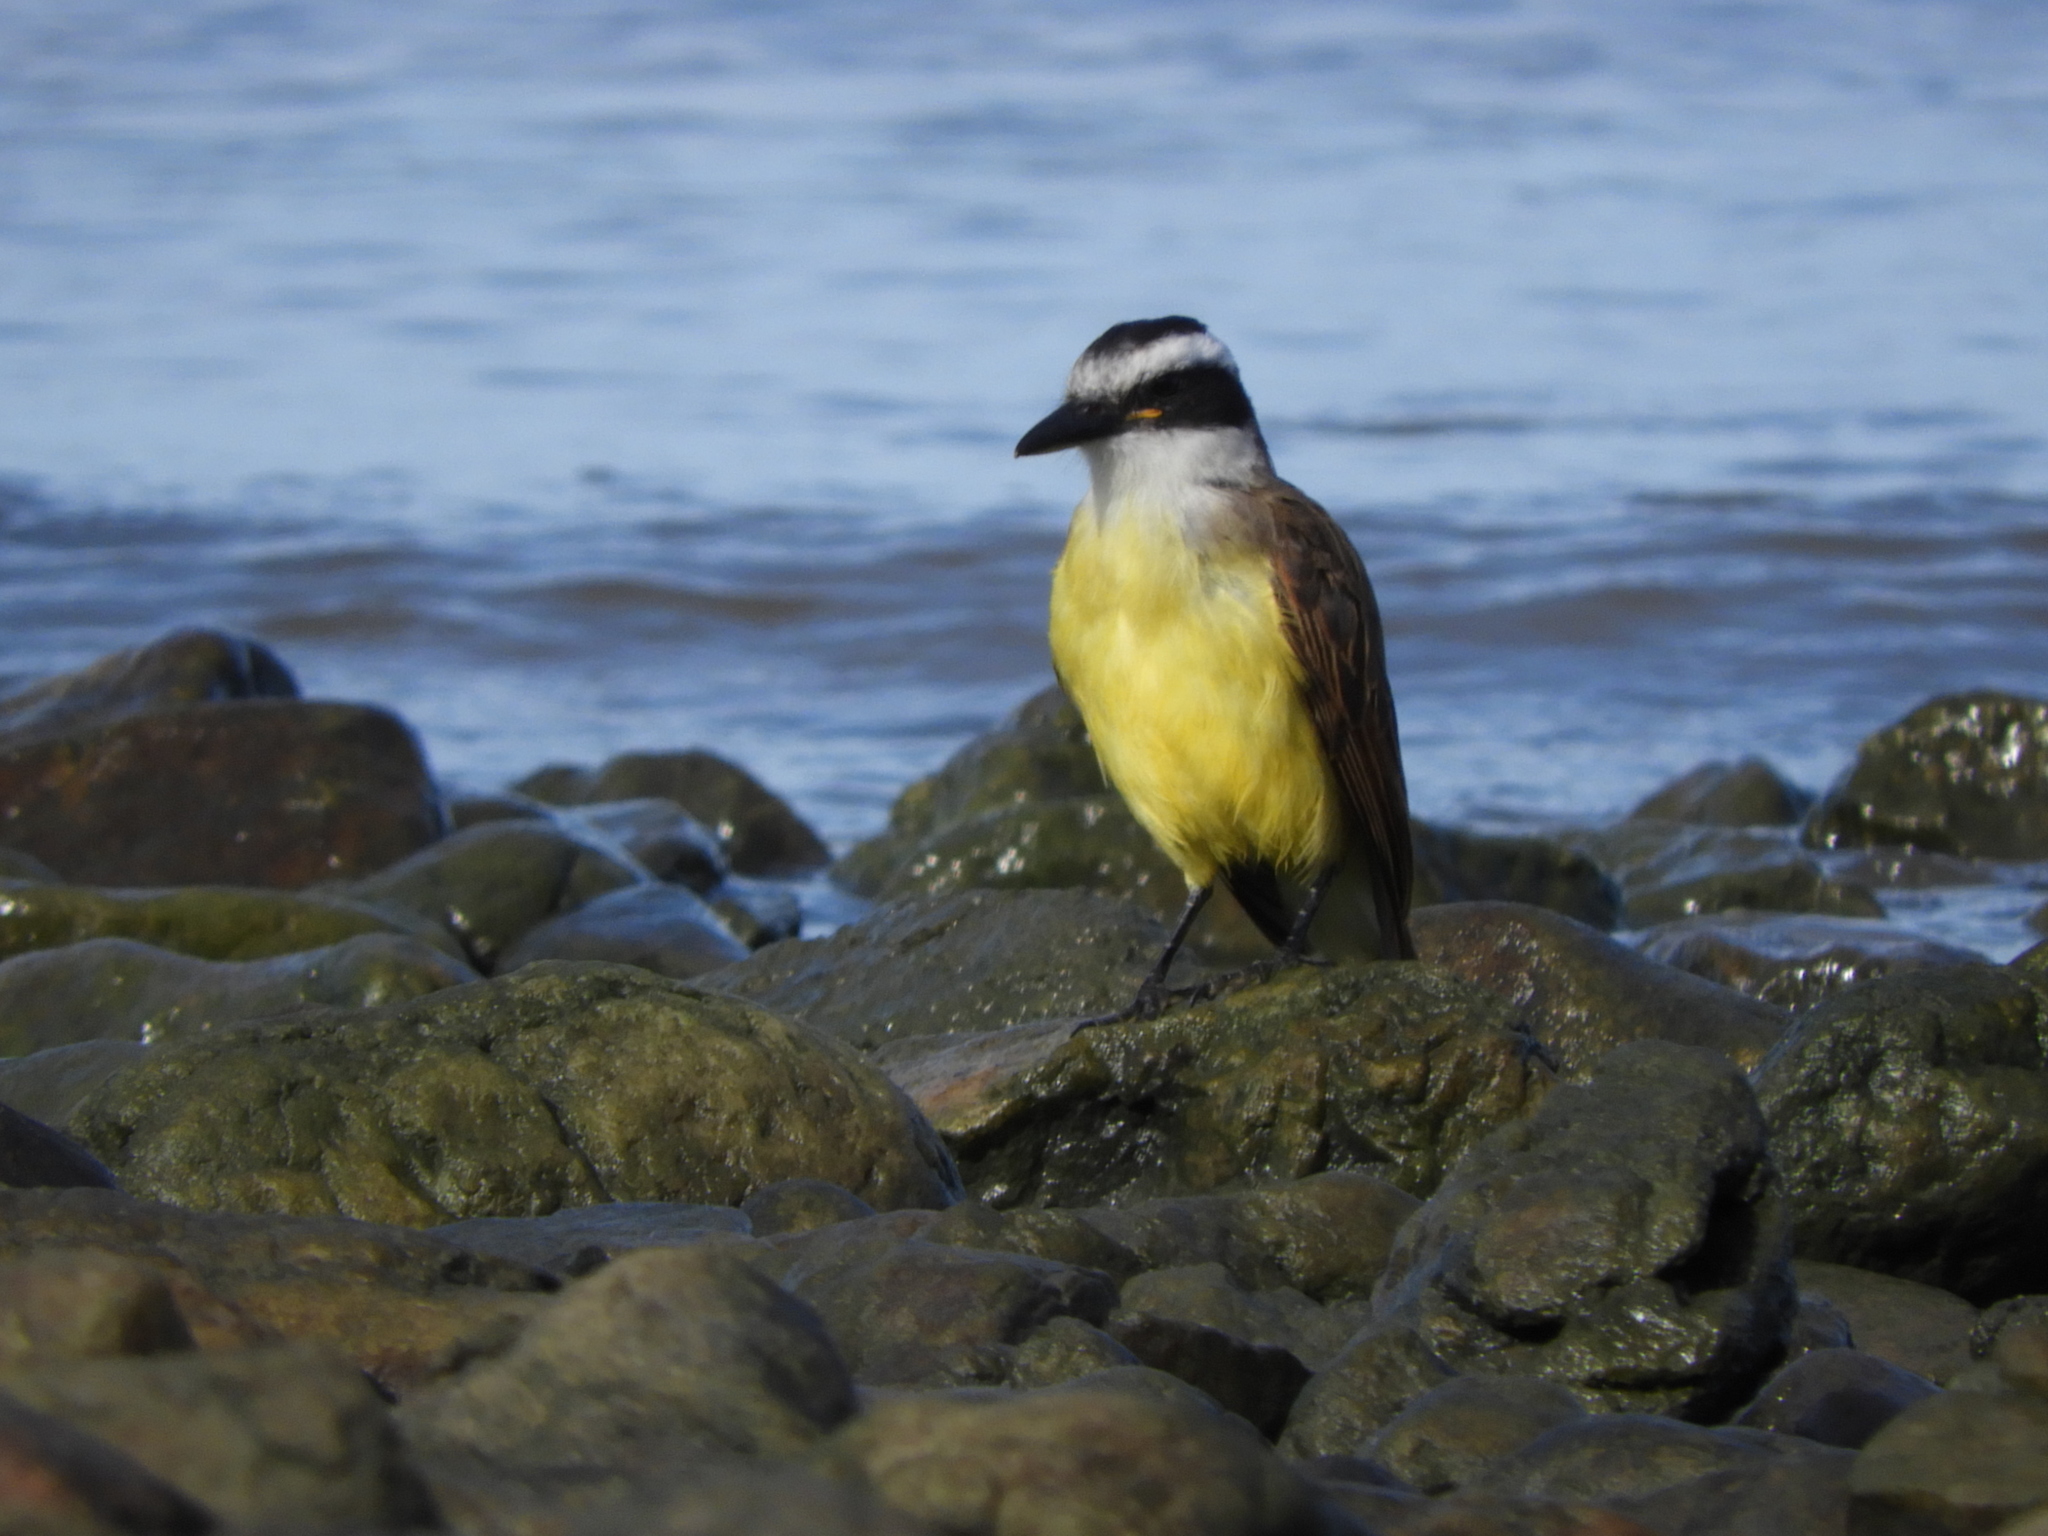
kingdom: Animalia
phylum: Chordata
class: Aves
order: Passeriformes
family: Tyrannidae
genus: Pitangus
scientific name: Pitangus sulphuratus
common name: Great kiskadee
